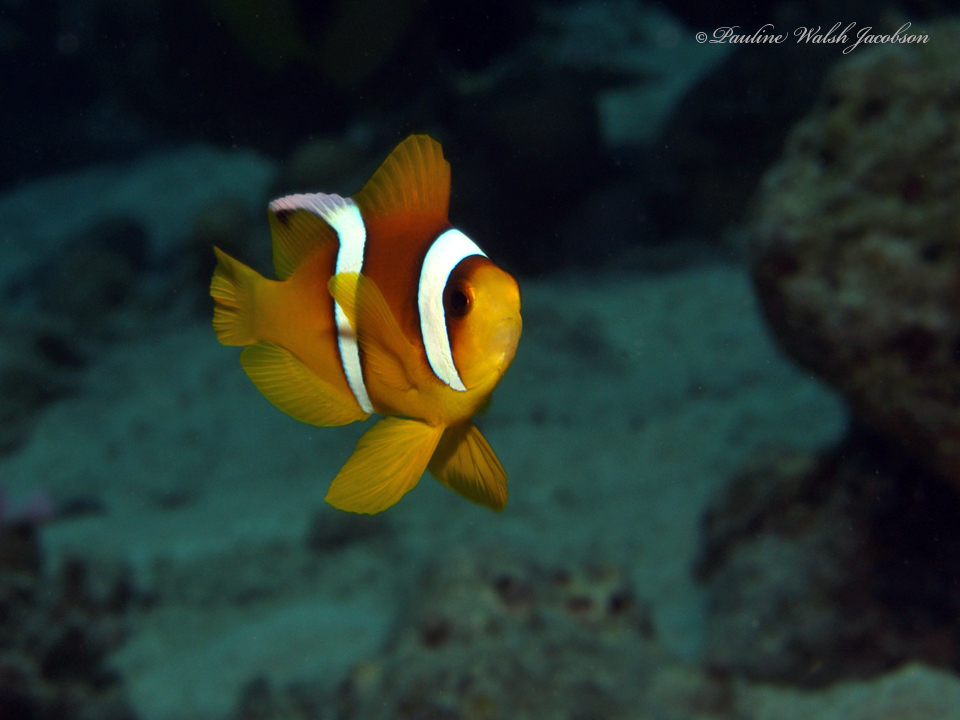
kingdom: Animalia
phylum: Chordata
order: Perciformes
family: Pomacentridae
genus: Amphiprion
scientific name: Amphiprion bicinctus
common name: Two-banded anemonefish
